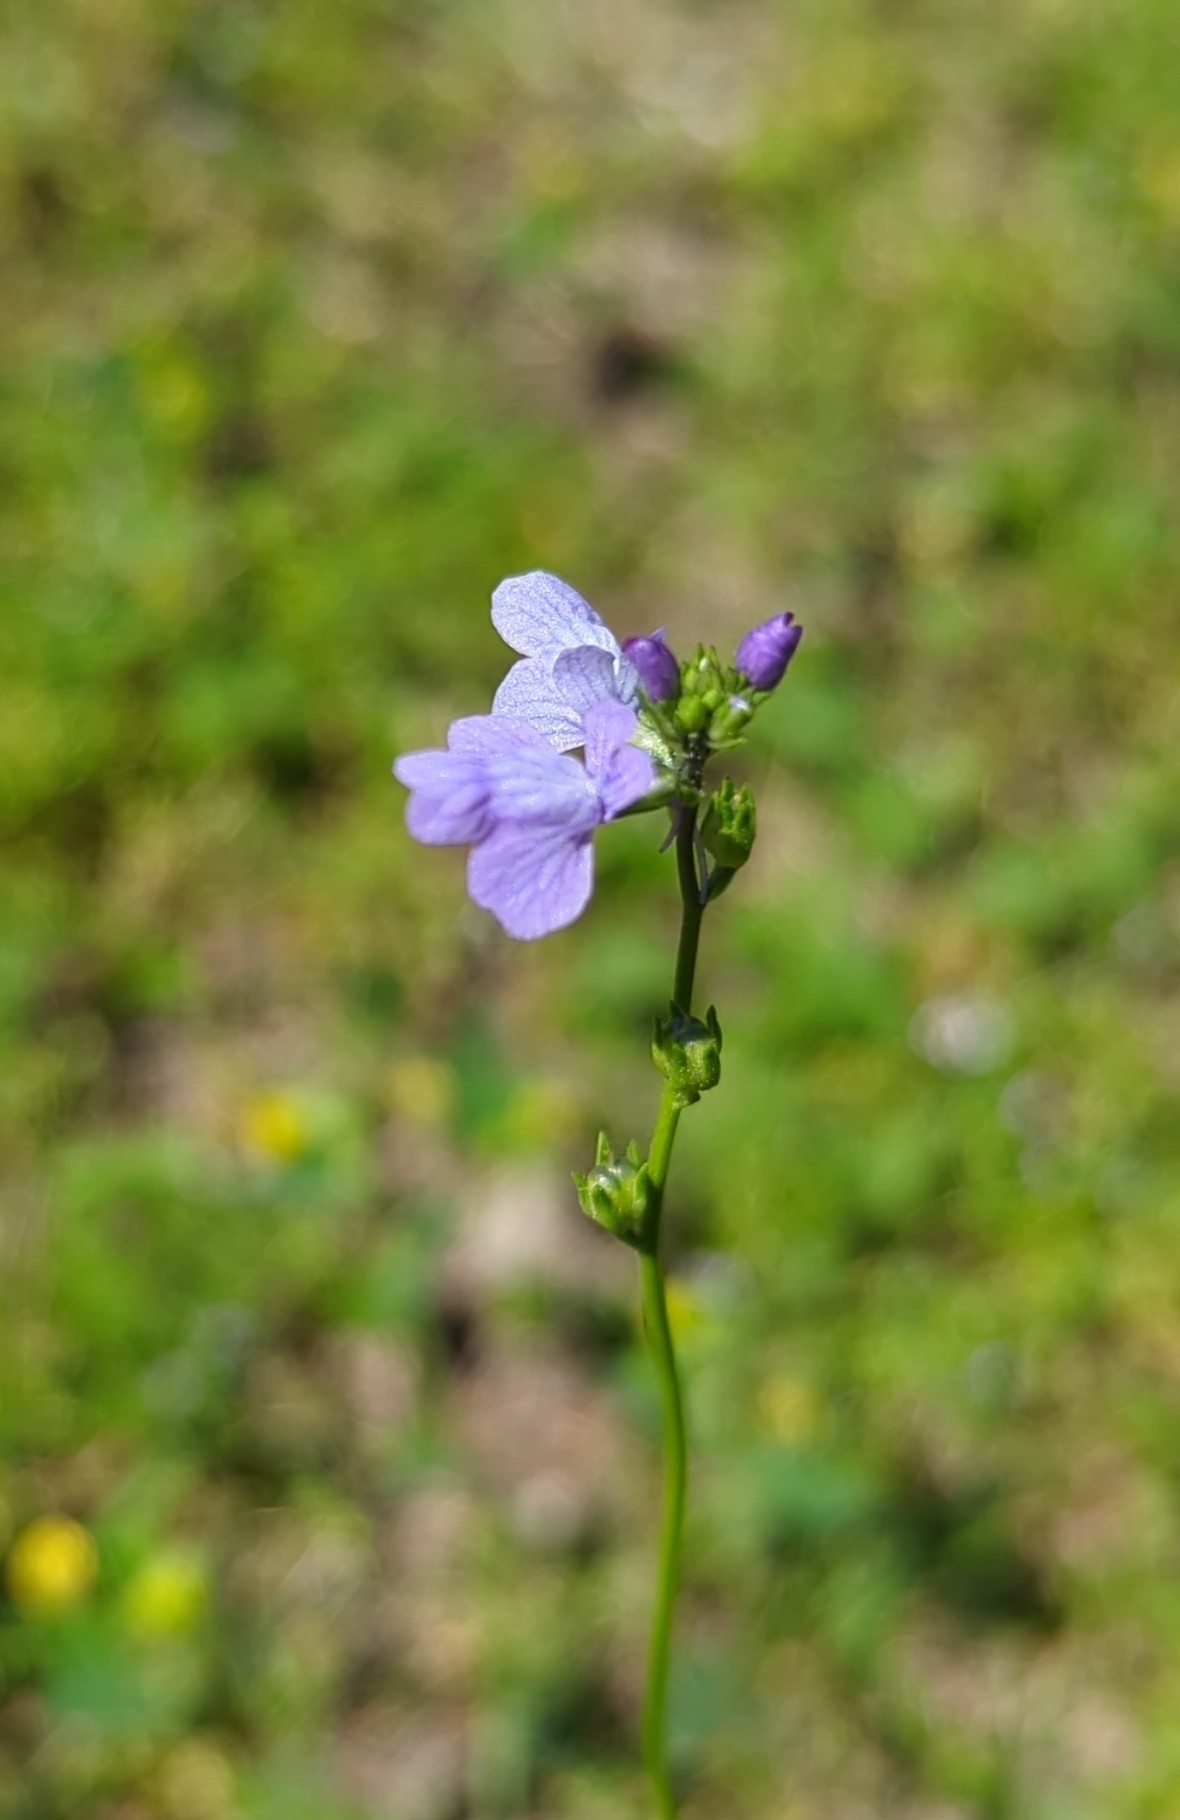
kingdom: Plantae
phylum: Tracheophyta
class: Magnoliopsida
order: Lamiales
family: Plantaginaceae
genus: Nuttallanthus
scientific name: Nuttallanthus texanus
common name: Texas toadflax
